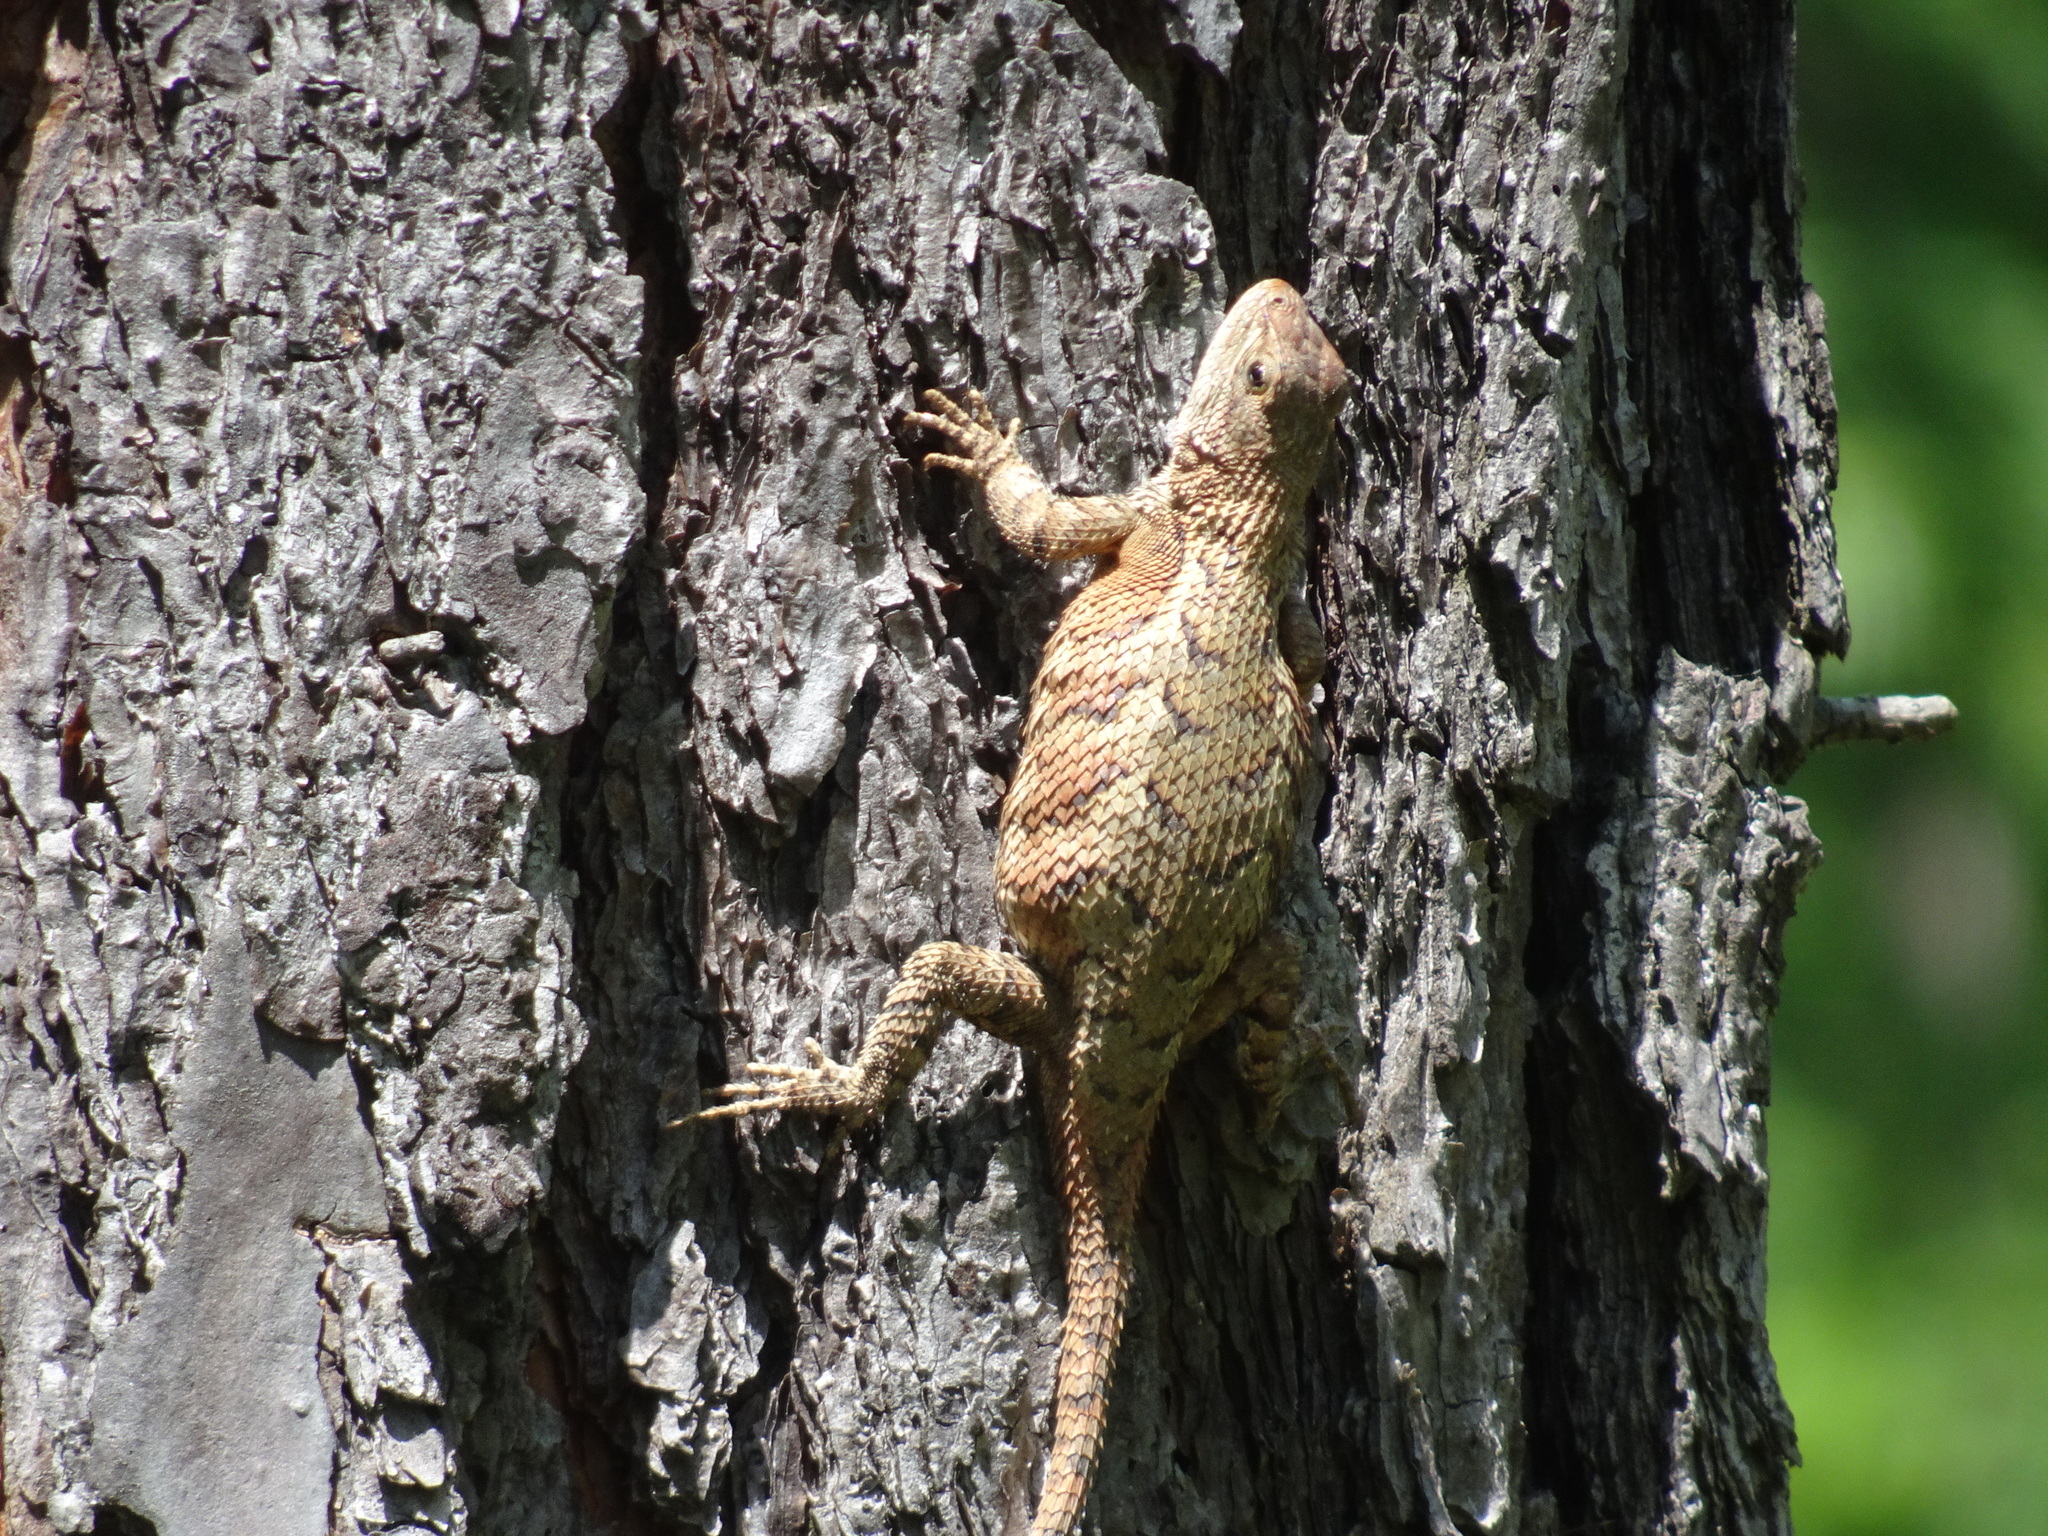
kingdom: Animalia
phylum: Chordata
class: Squamata
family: Phrynosomatidae
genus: Sceloporus
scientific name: Sceloporus consobrinus
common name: Southern prairie lizard
